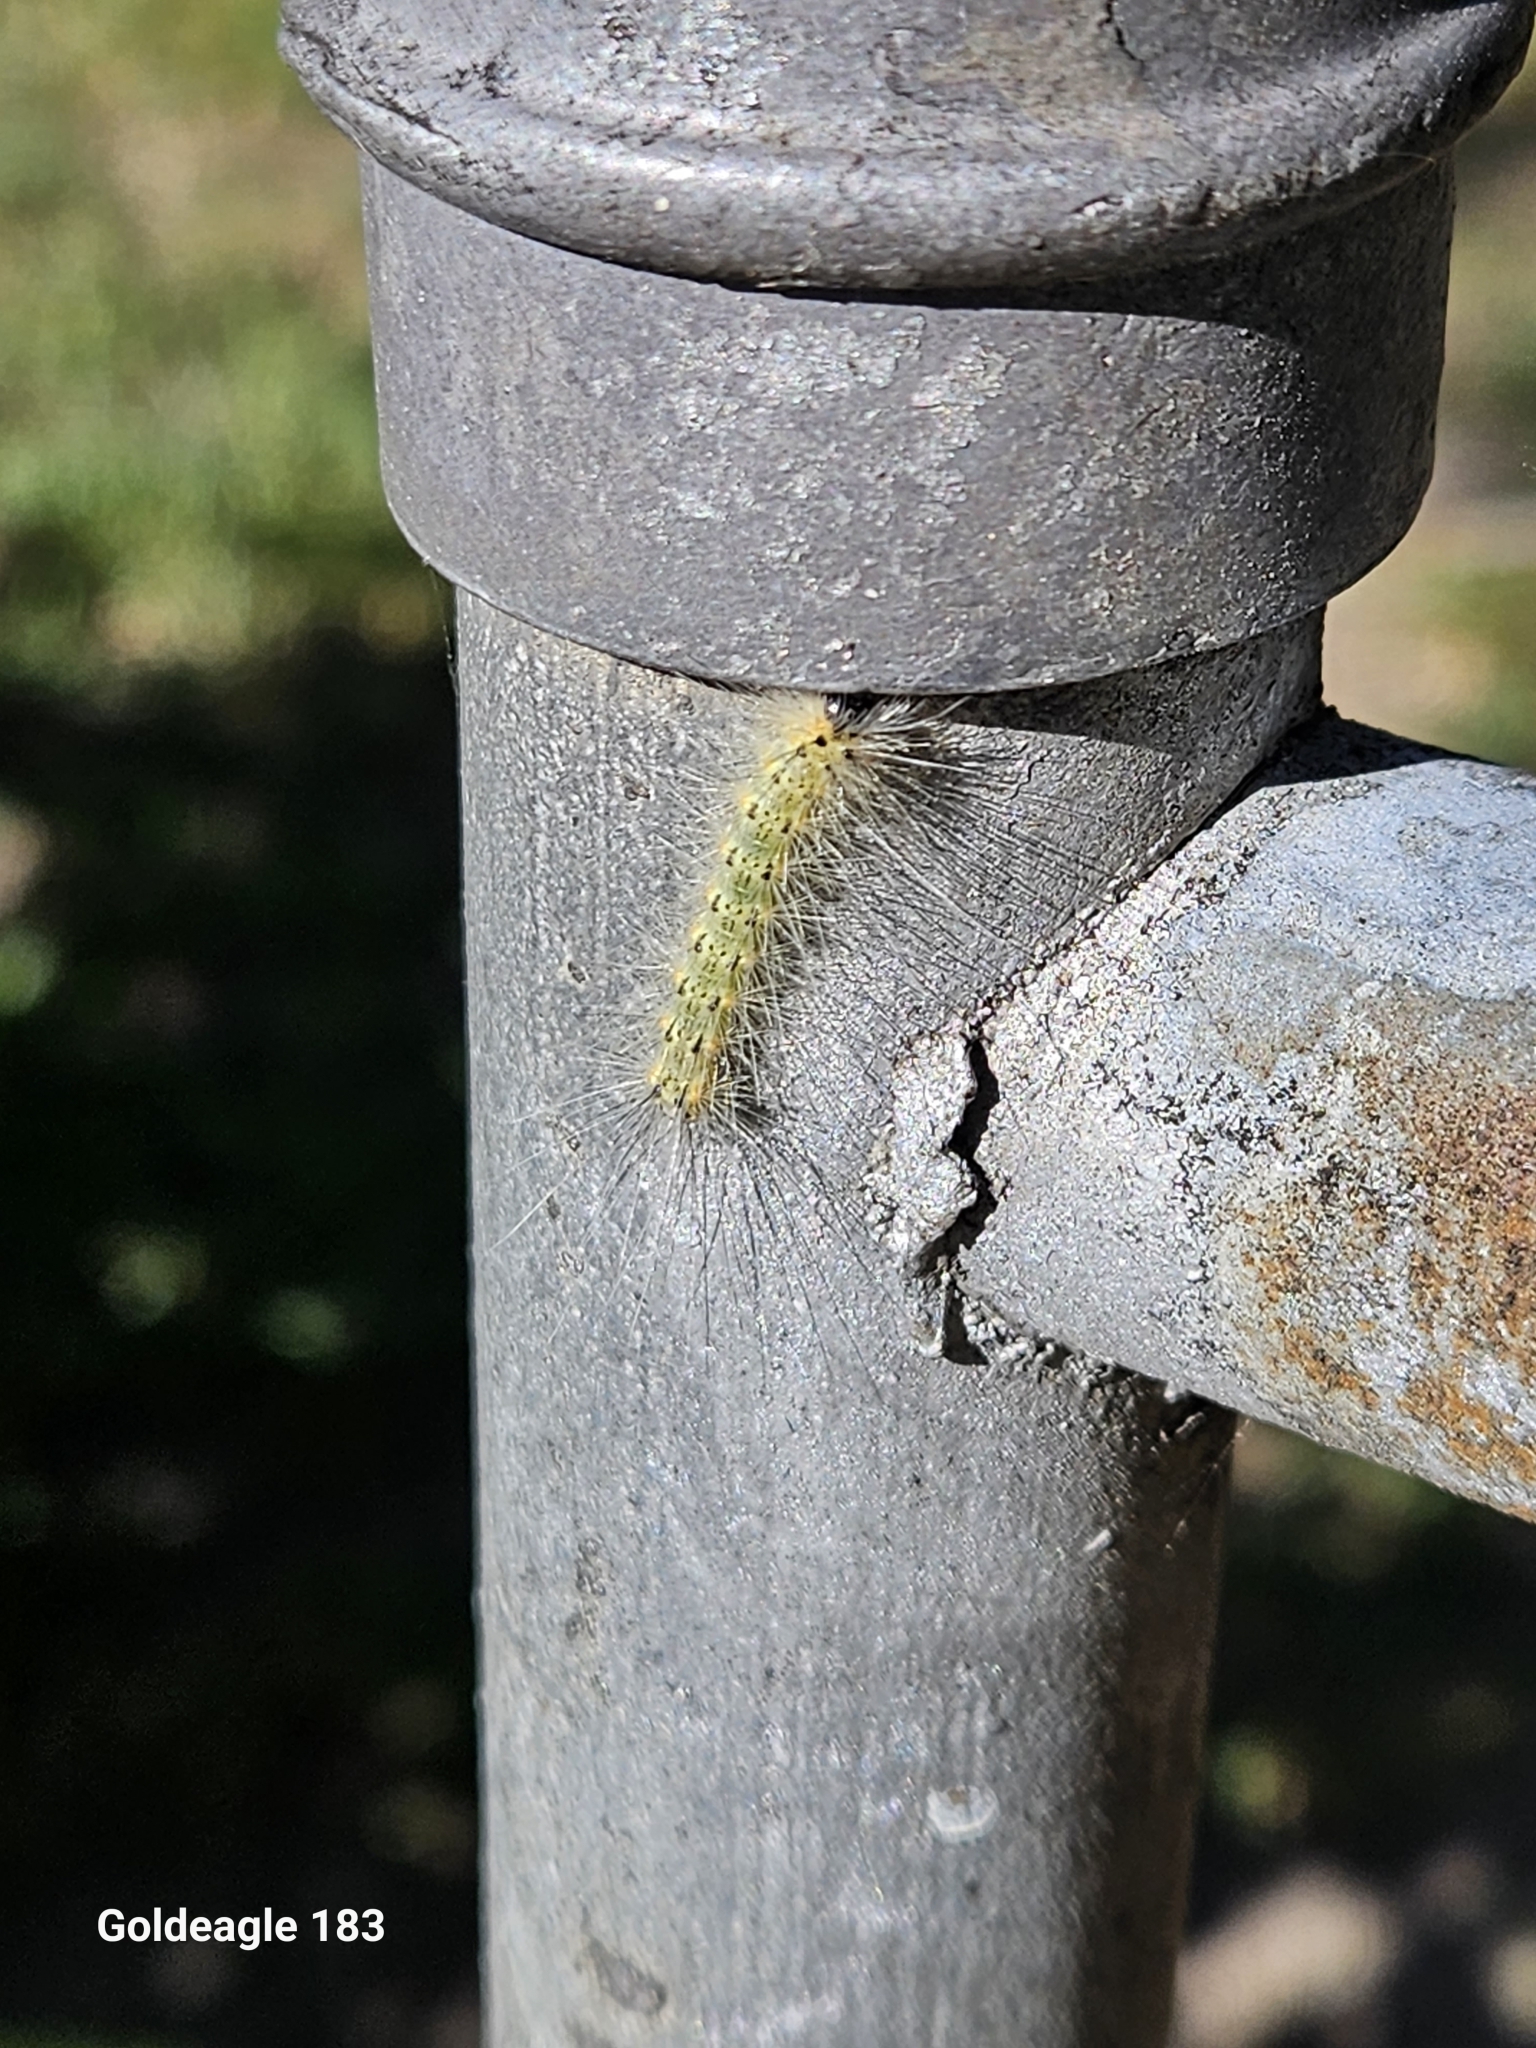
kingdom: Animalia
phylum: Arthropoda
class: Insecta
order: Lepidoptera
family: Erebidae
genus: Hyphantria
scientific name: Hyphantria cunea
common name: American white moth
